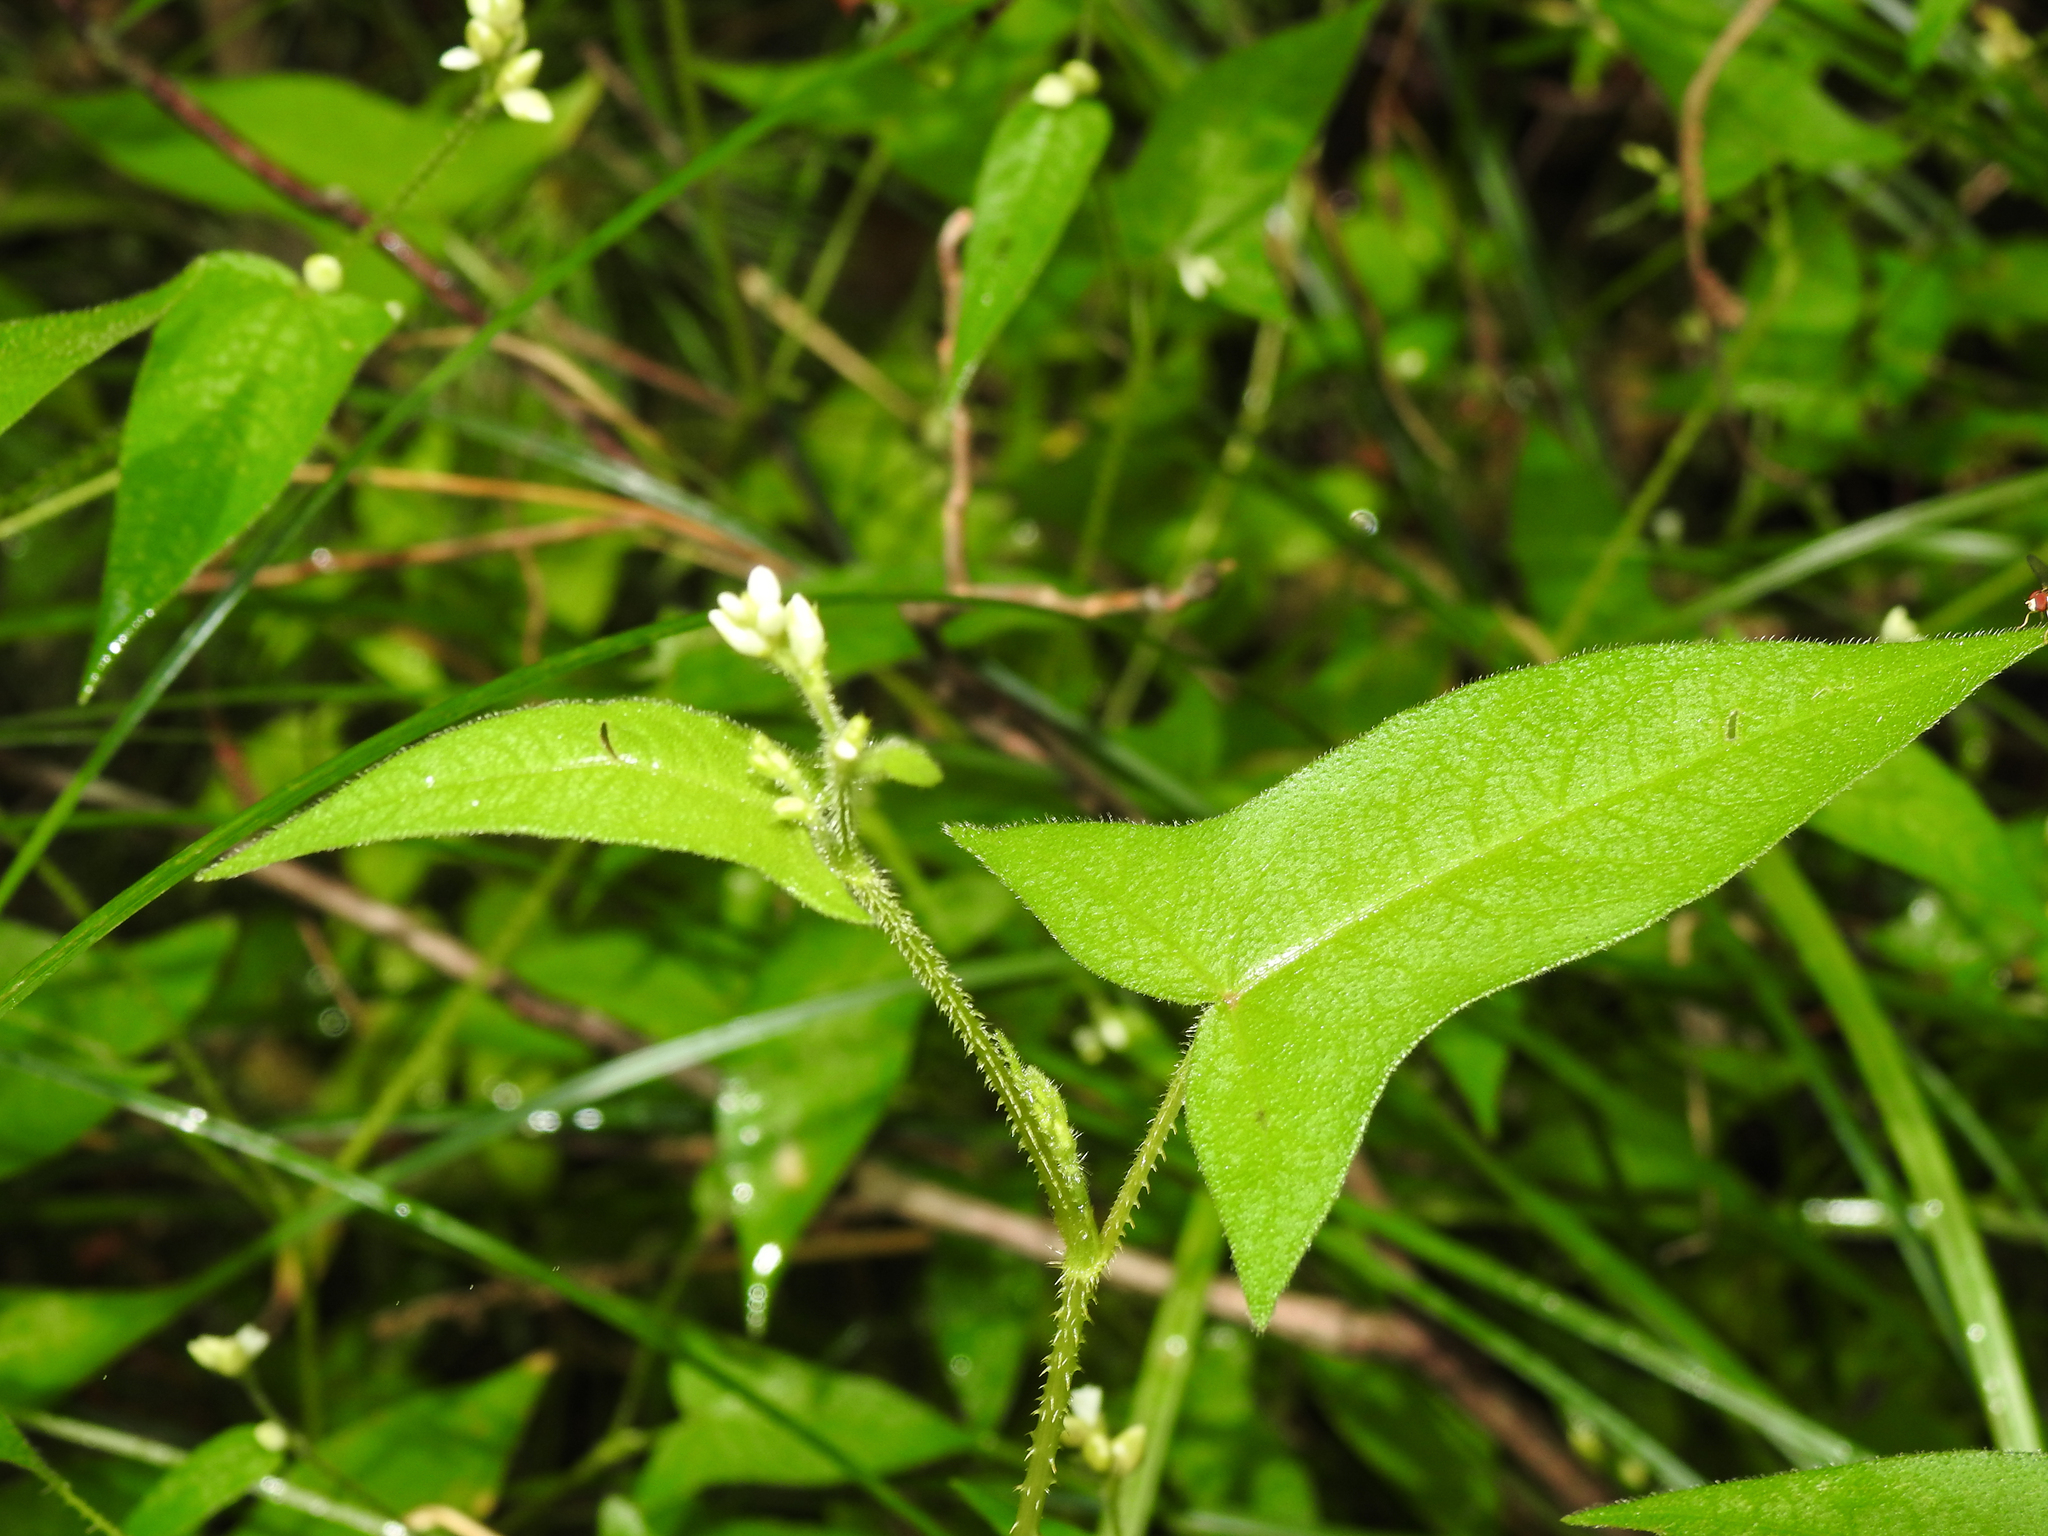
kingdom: Plantae
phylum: Tracheophyta
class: Magnoliopsida
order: Caryophyllales
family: Polygonaceae
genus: Persicaria
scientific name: Persicaria arifolia
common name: Halberd-leaved tear-thumb
